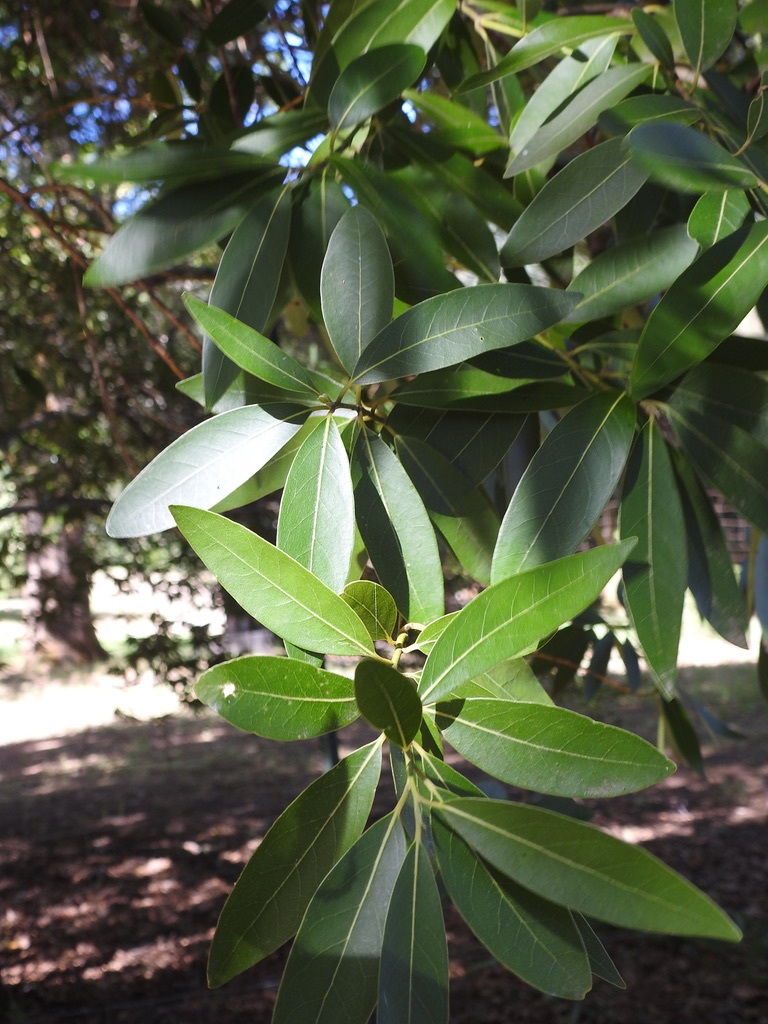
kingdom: Plantae
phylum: Tracheophyta
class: Magnoliopsida
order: Laurales
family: Lauraceae
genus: Umbellularia
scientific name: Umbellularia californica
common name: California bay
